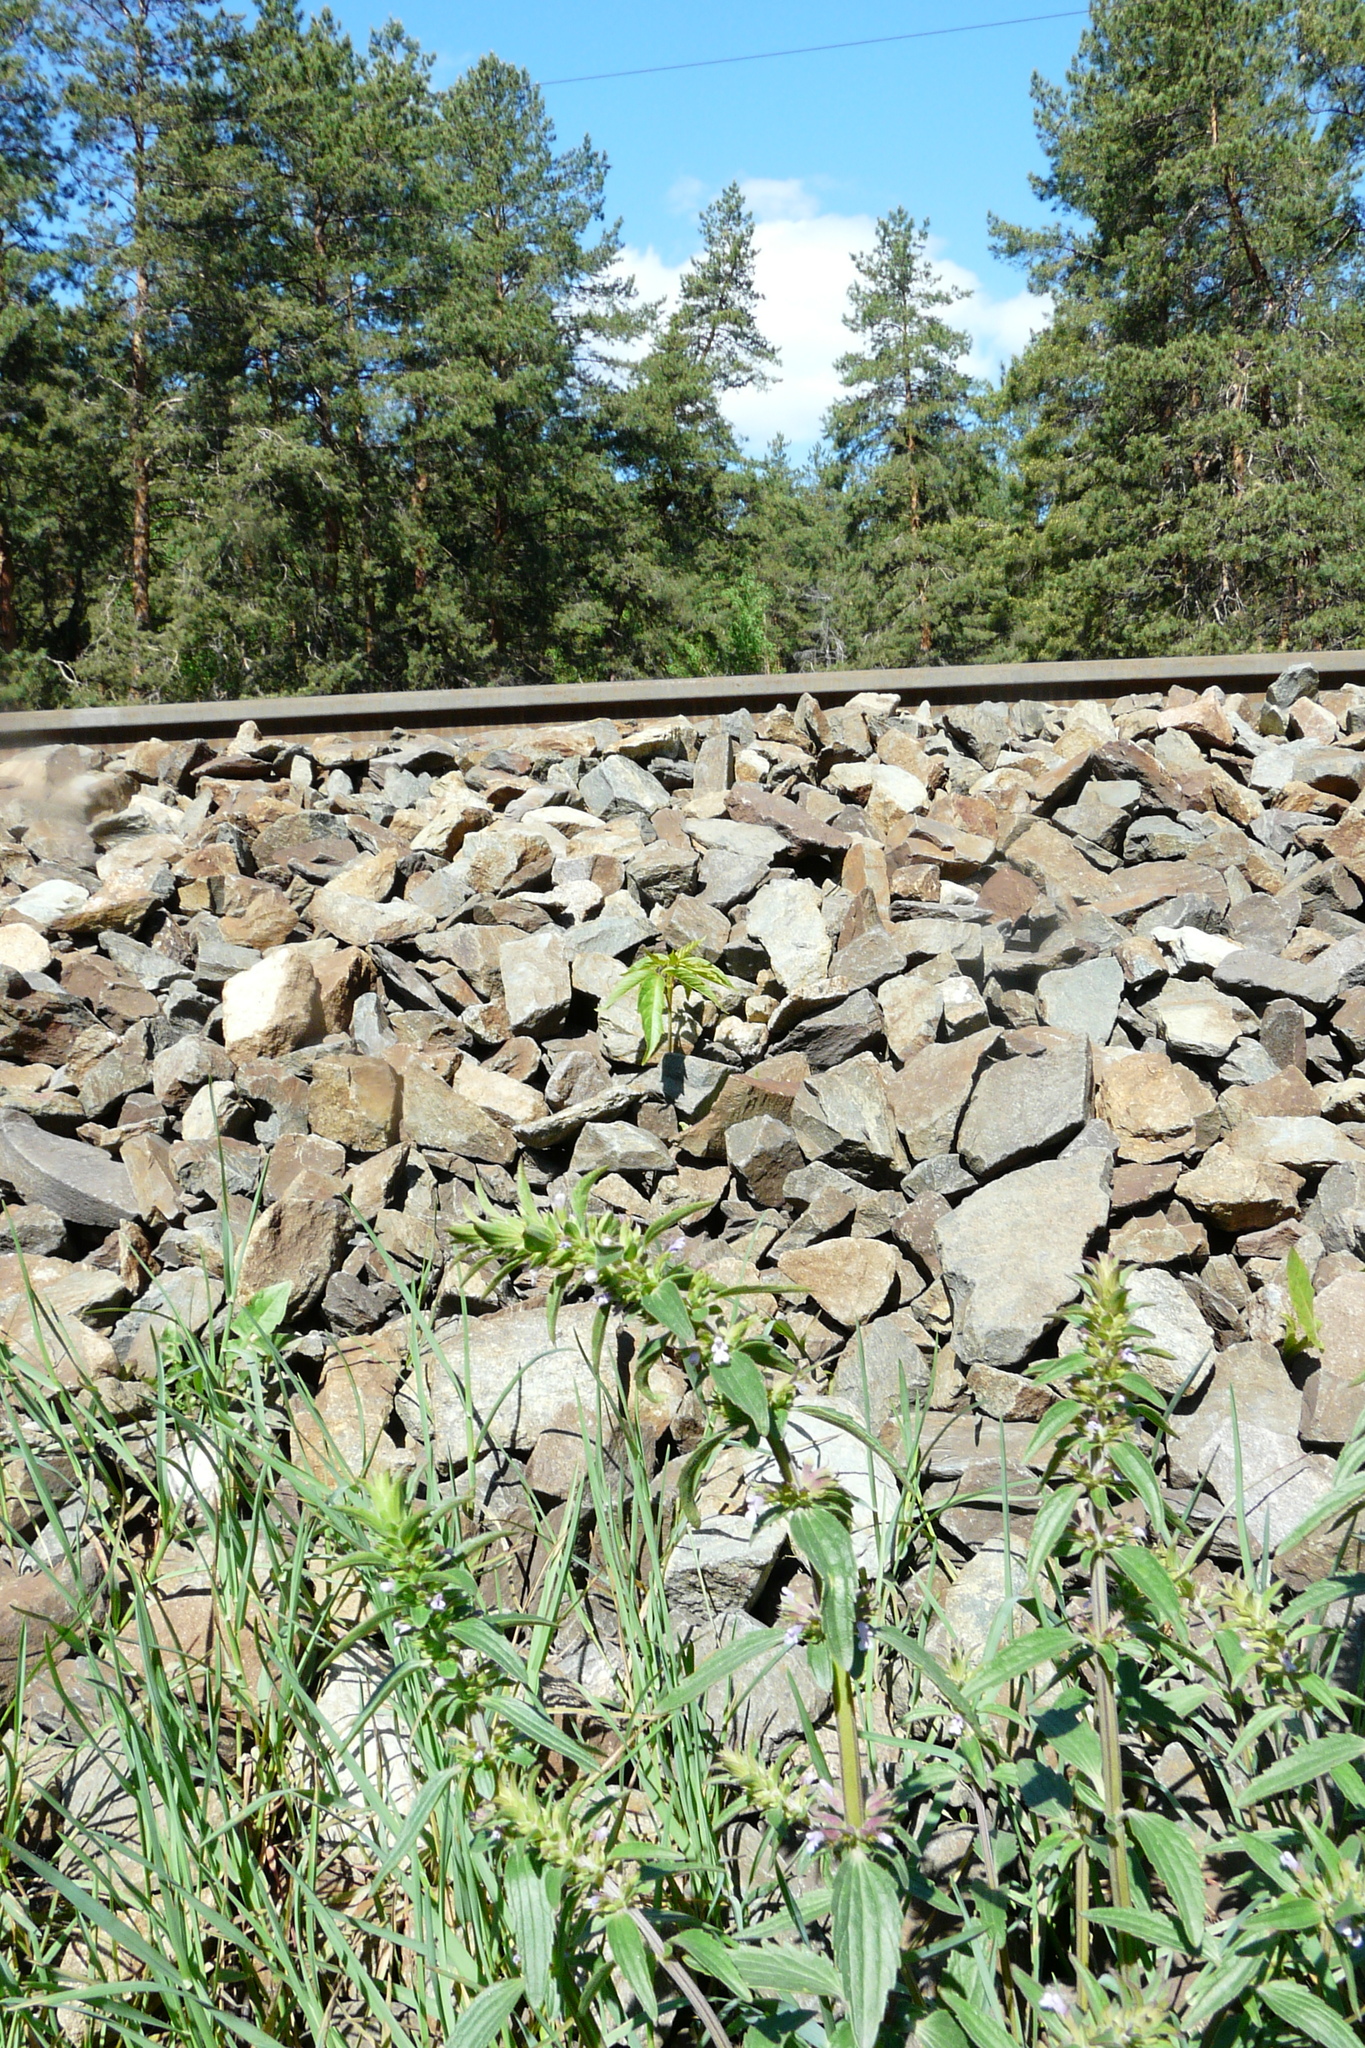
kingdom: Plantae
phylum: Tracheophyta
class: Magnoliopsida
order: Lamiales
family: Lamiaceae
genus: Dracocephalum
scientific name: Dracocephalum thymiflorum
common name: Thymeleaf dragonhead
